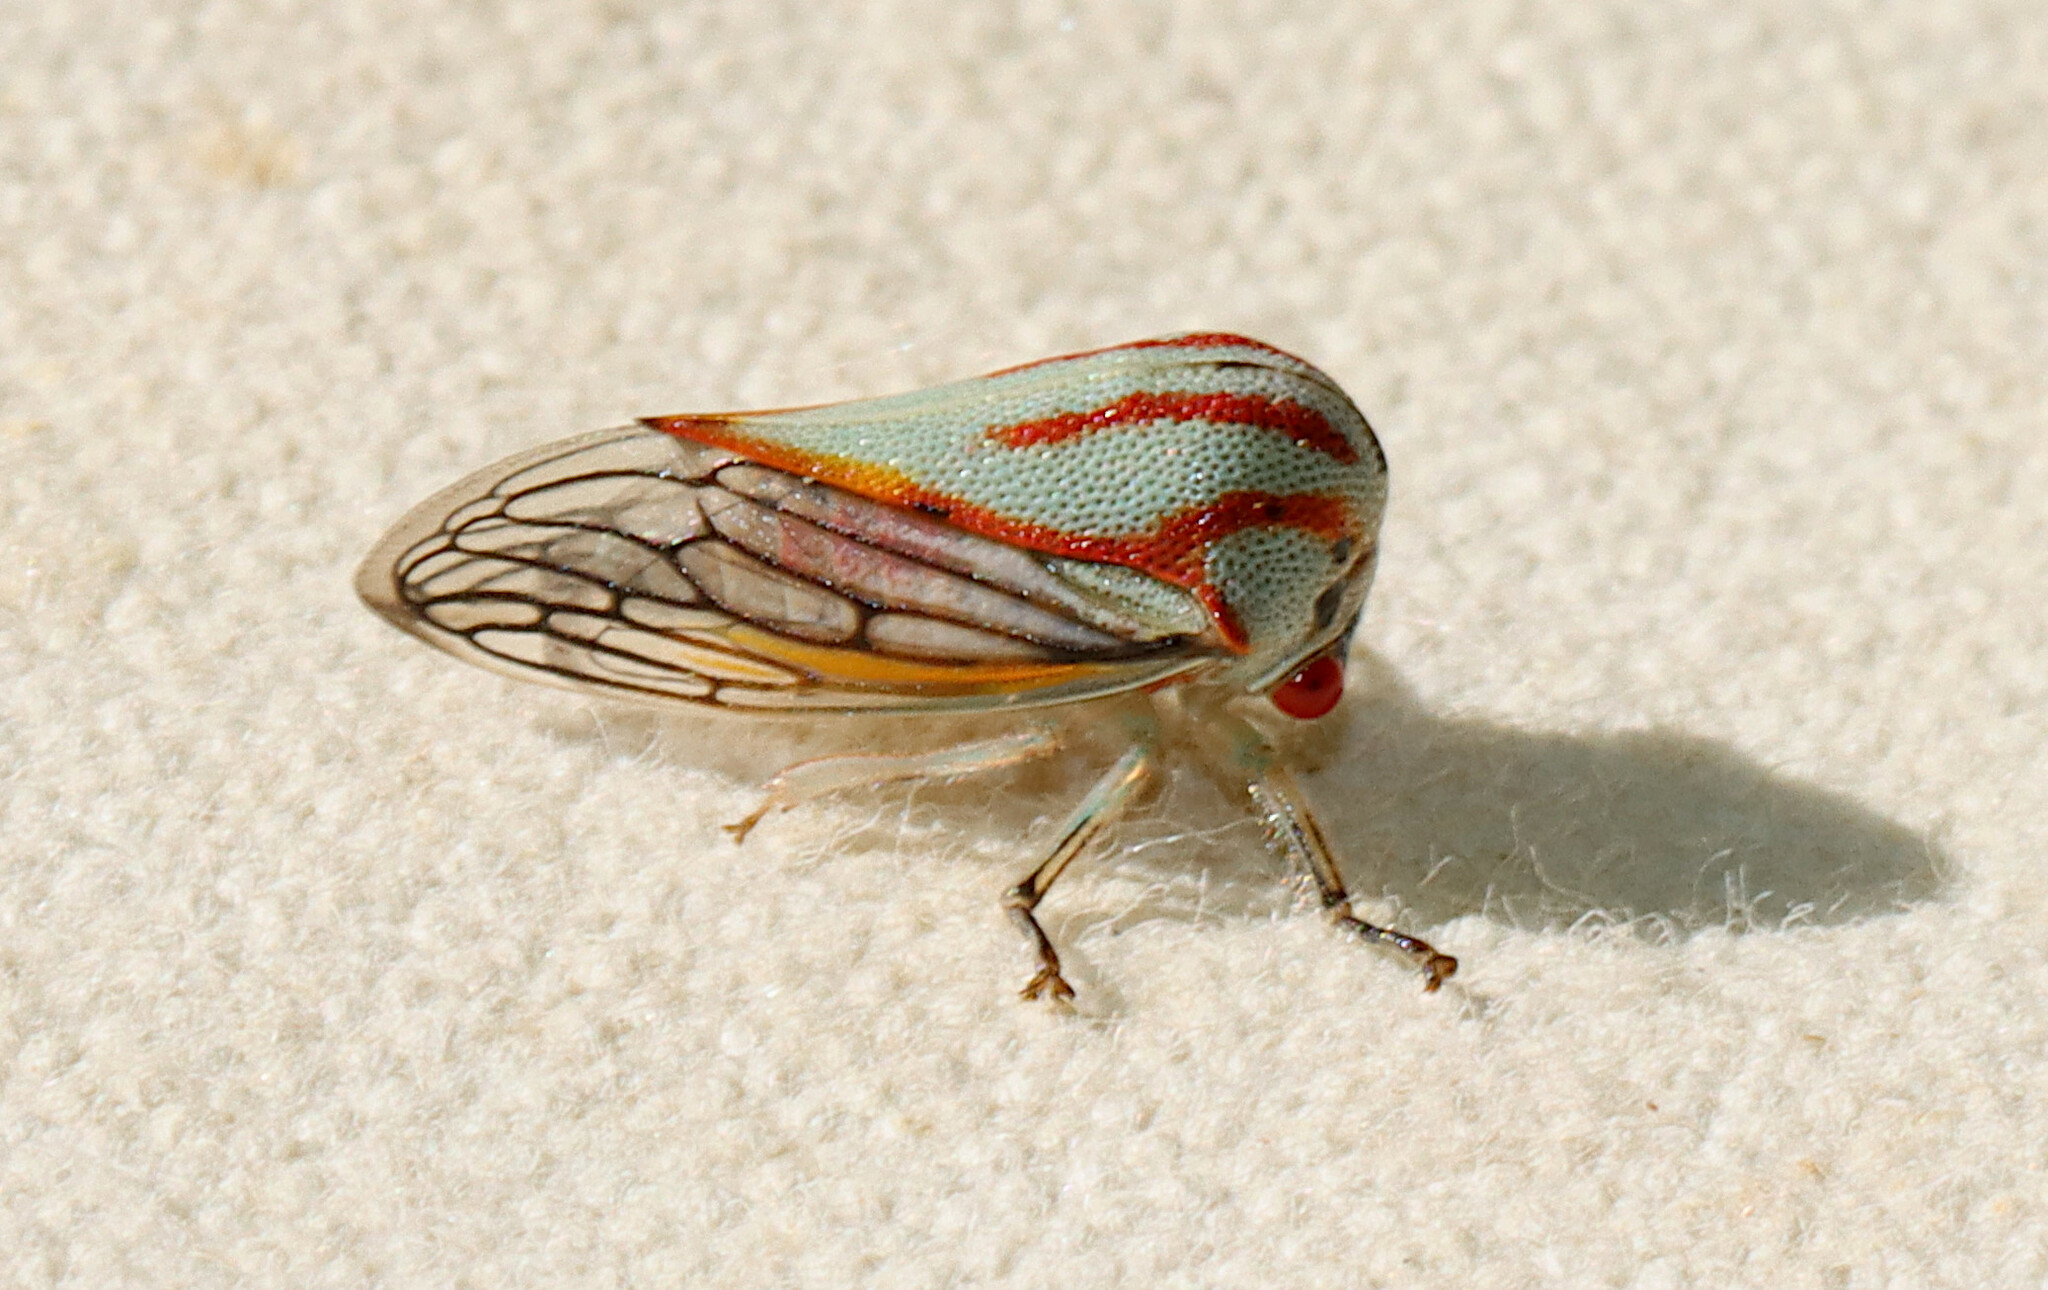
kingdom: Animalia
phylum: Arthropoda
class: Insecta
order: Hemiptera
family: Membracidae
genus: Platycotis
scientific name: Platycotis vittatus
